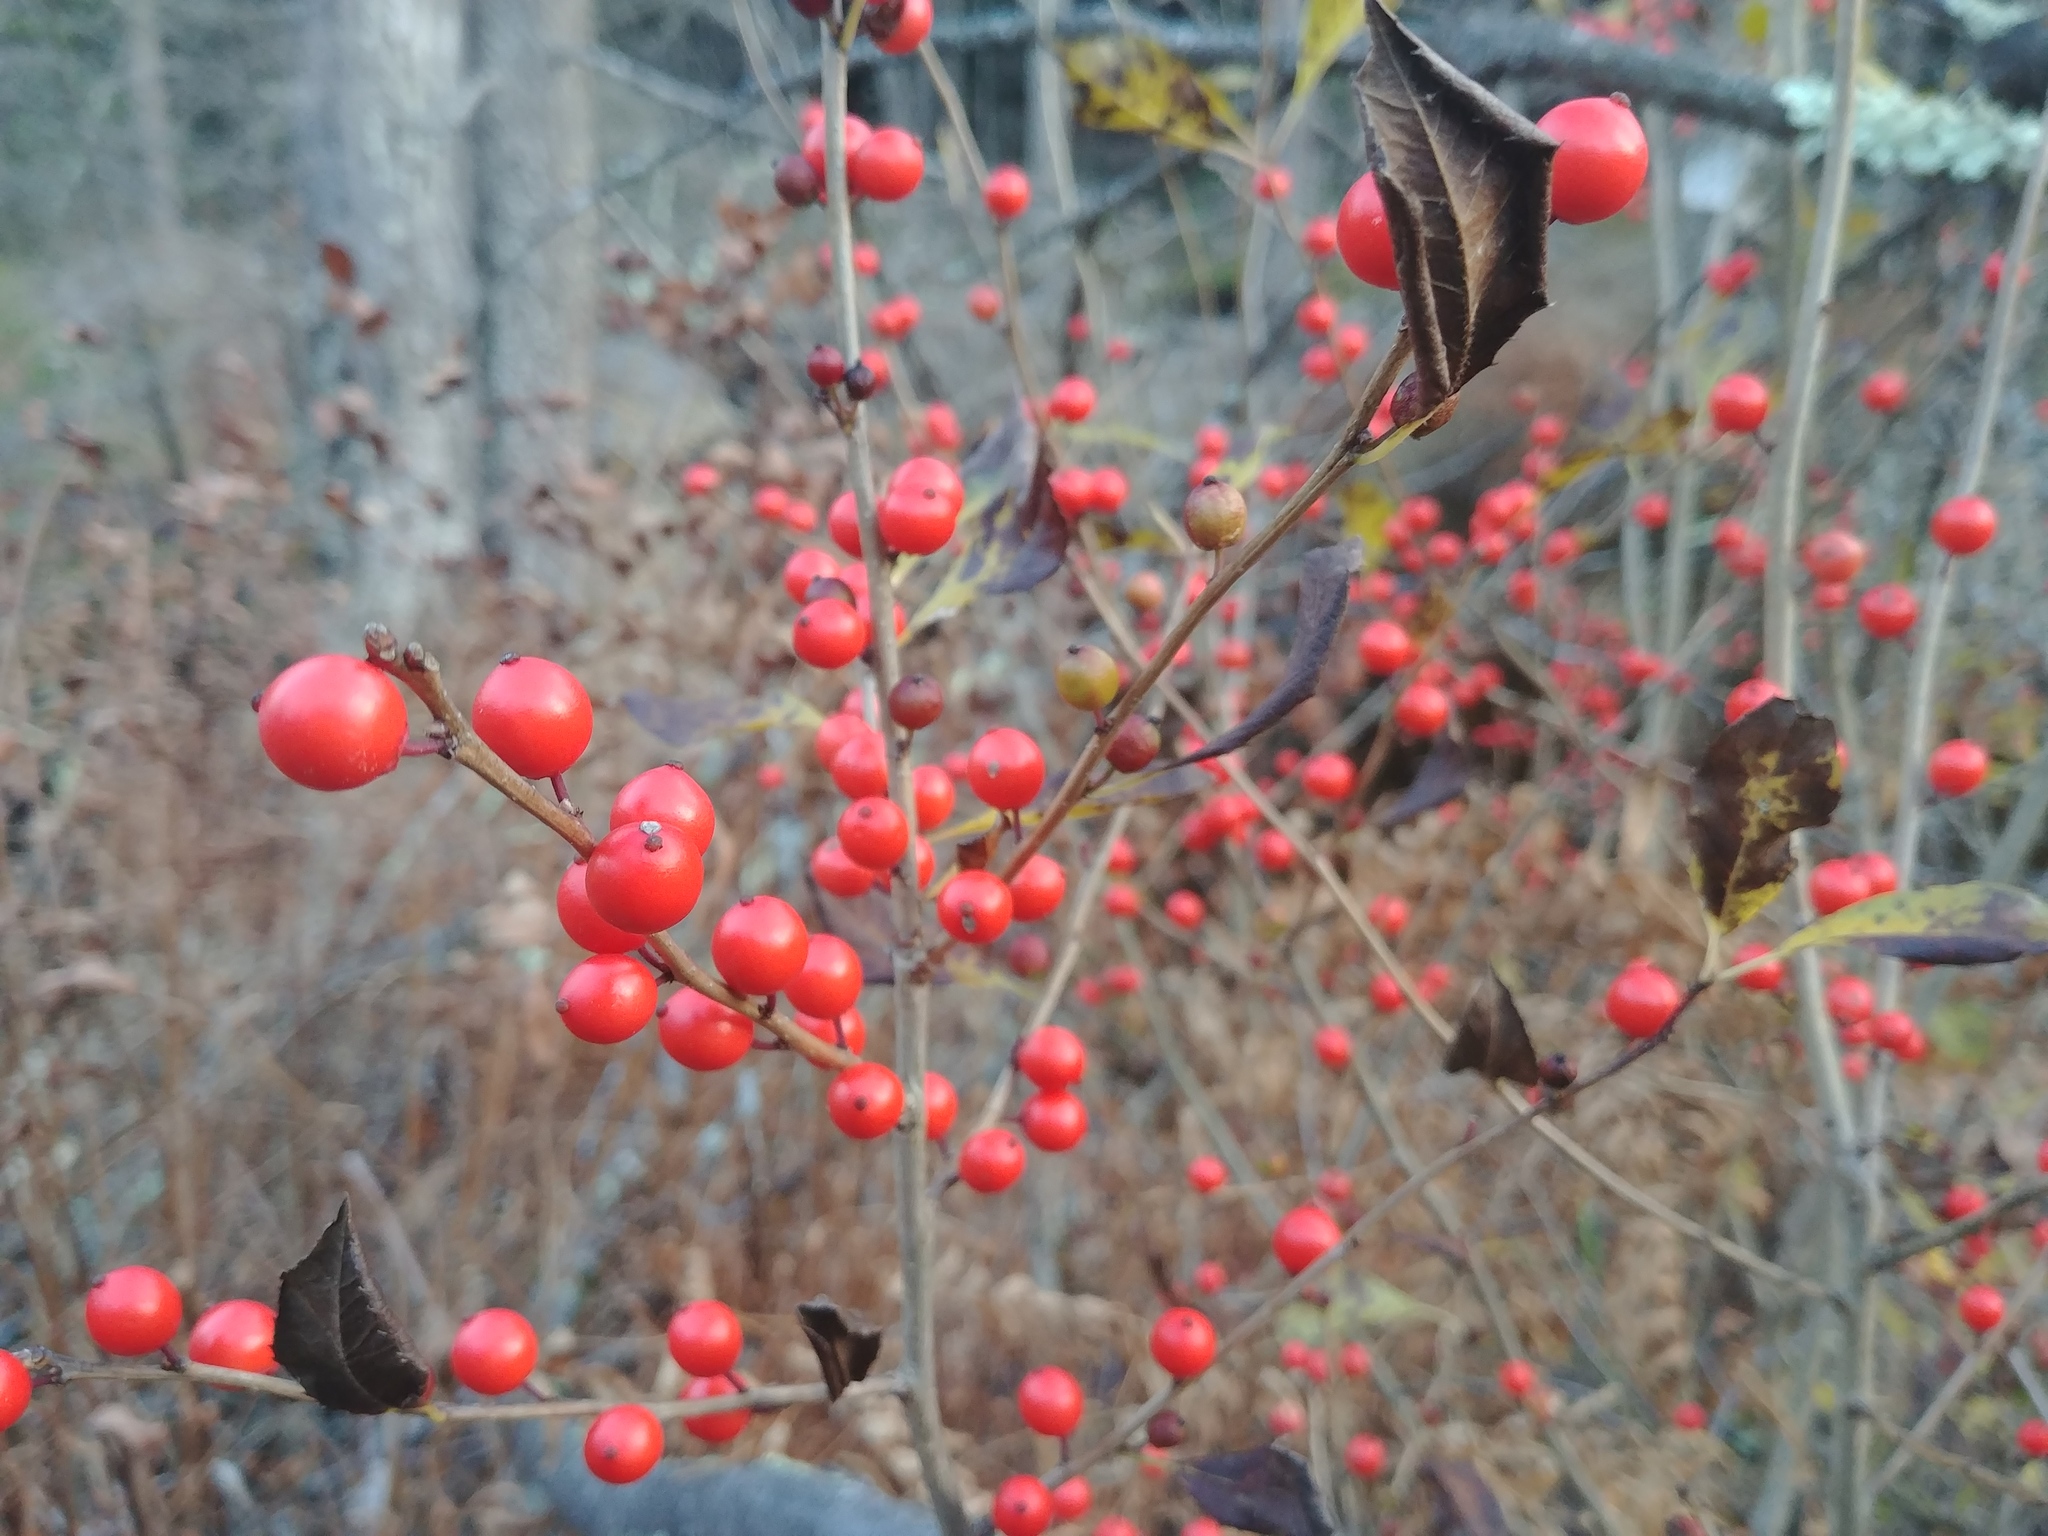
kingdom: Plantae
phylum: Tracheophyta
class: Magnoliopsida
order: Aquifoliales
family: Aquifoliaceae
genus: Ilex
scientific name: Ilex verticillata
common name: Virginia winterberry
